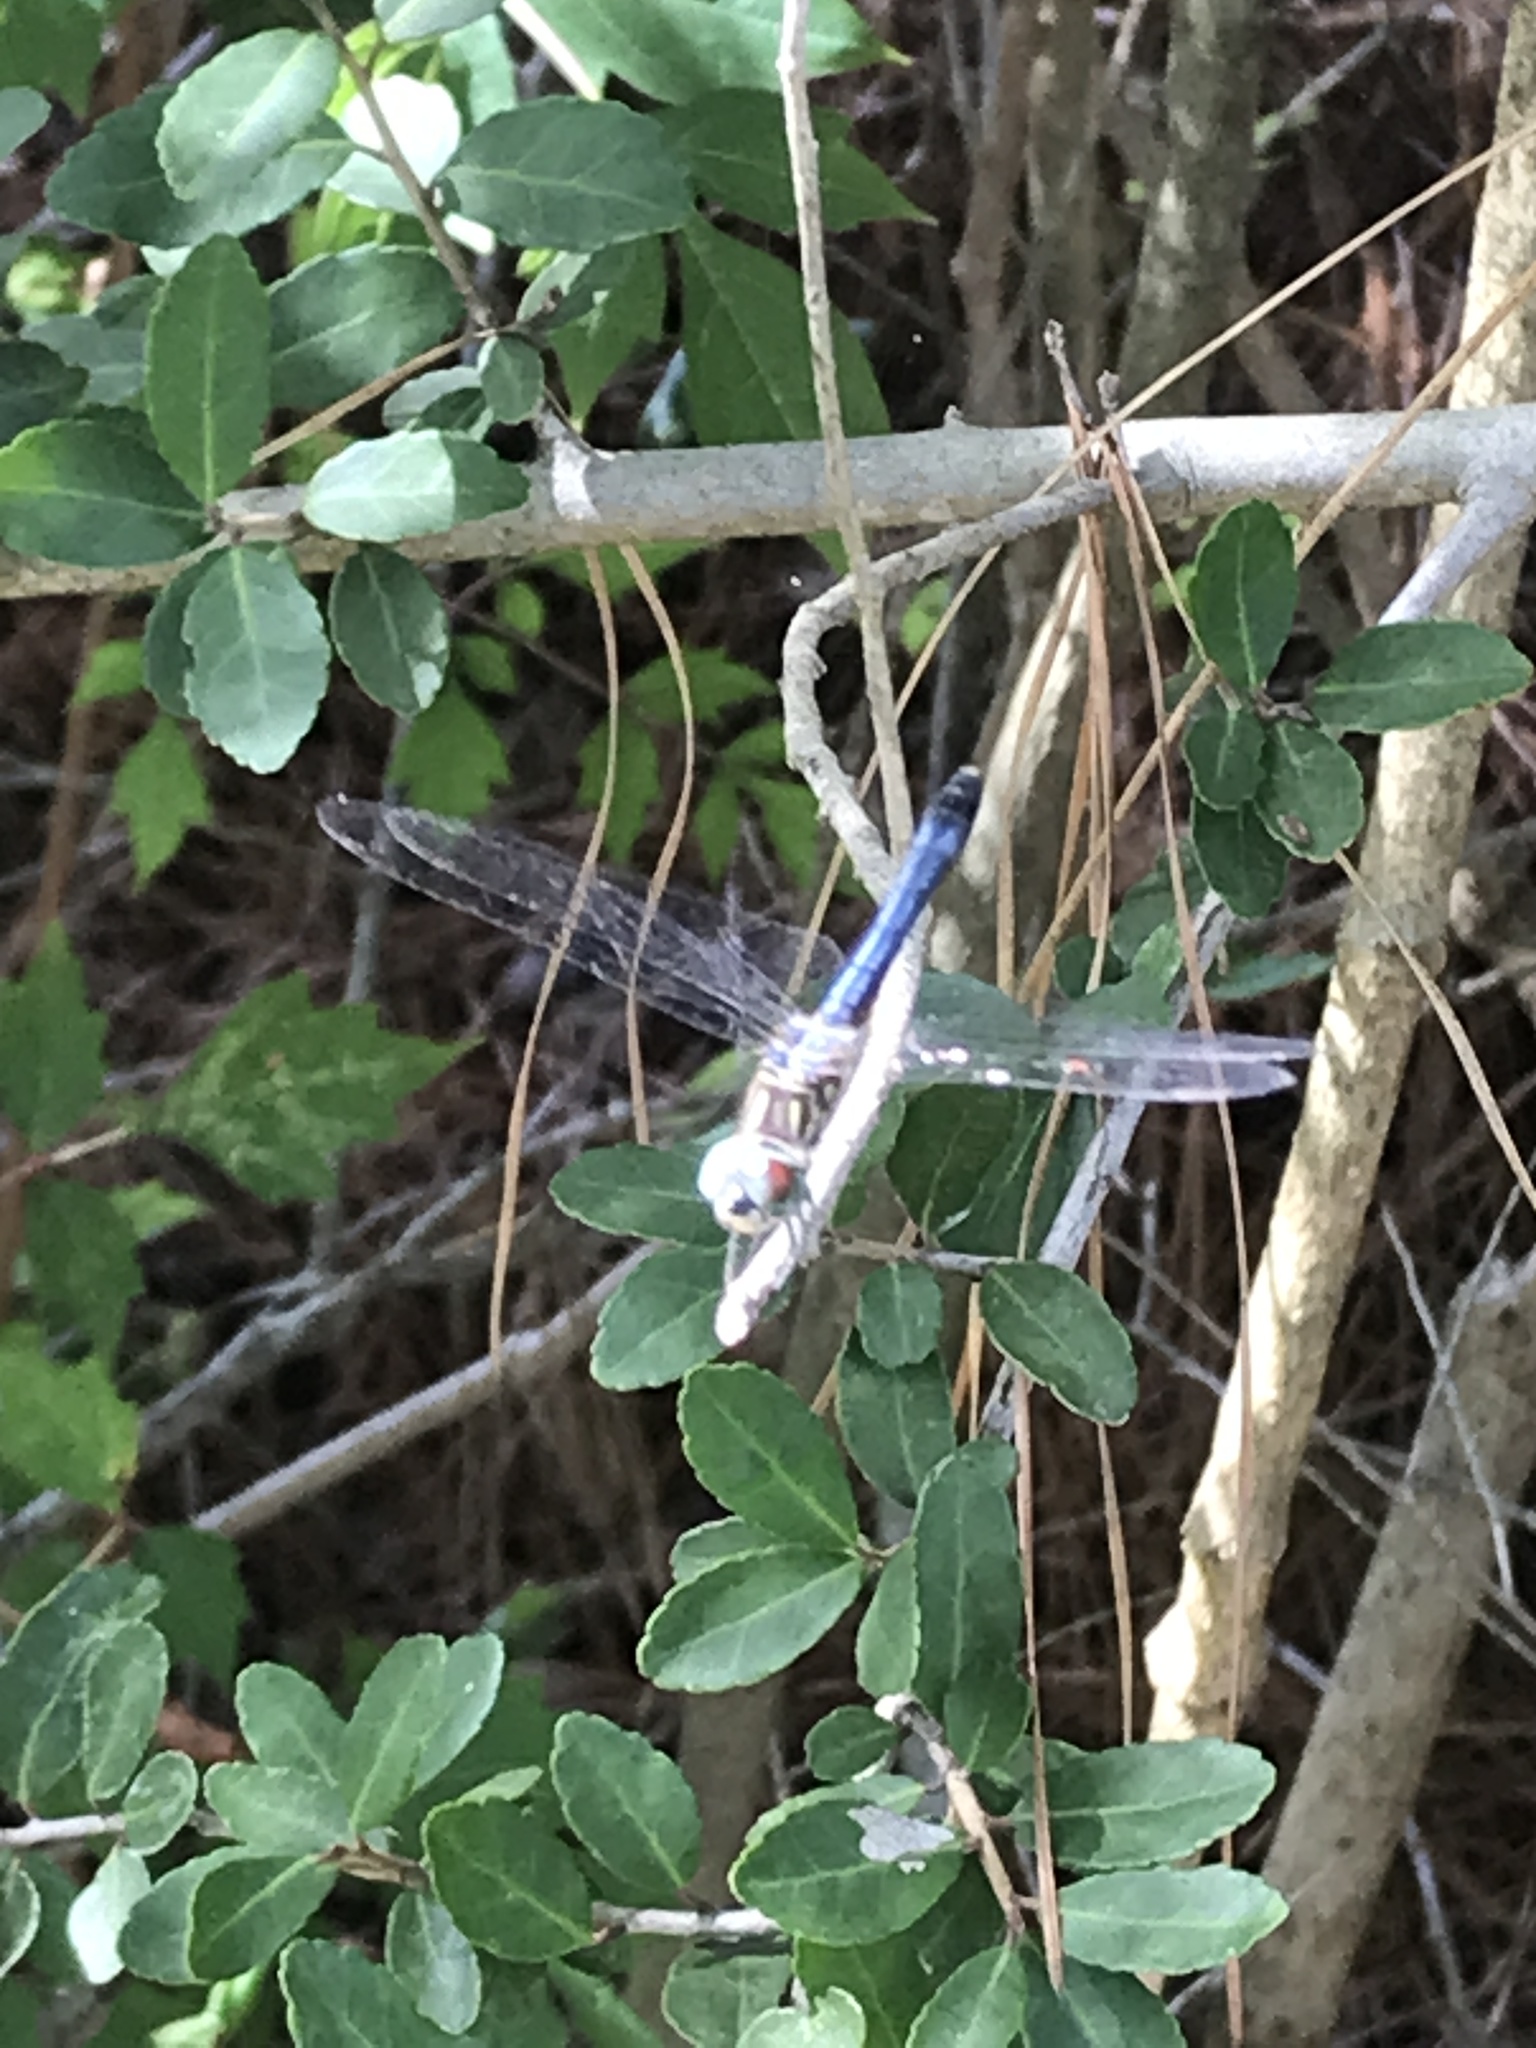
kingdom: Animalia
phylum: Arthropoda
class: Insecta
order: Odonata
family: Libellulidae
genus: Pachydiplax
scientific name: Pachydiplax longipennis
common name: Blue dasher
